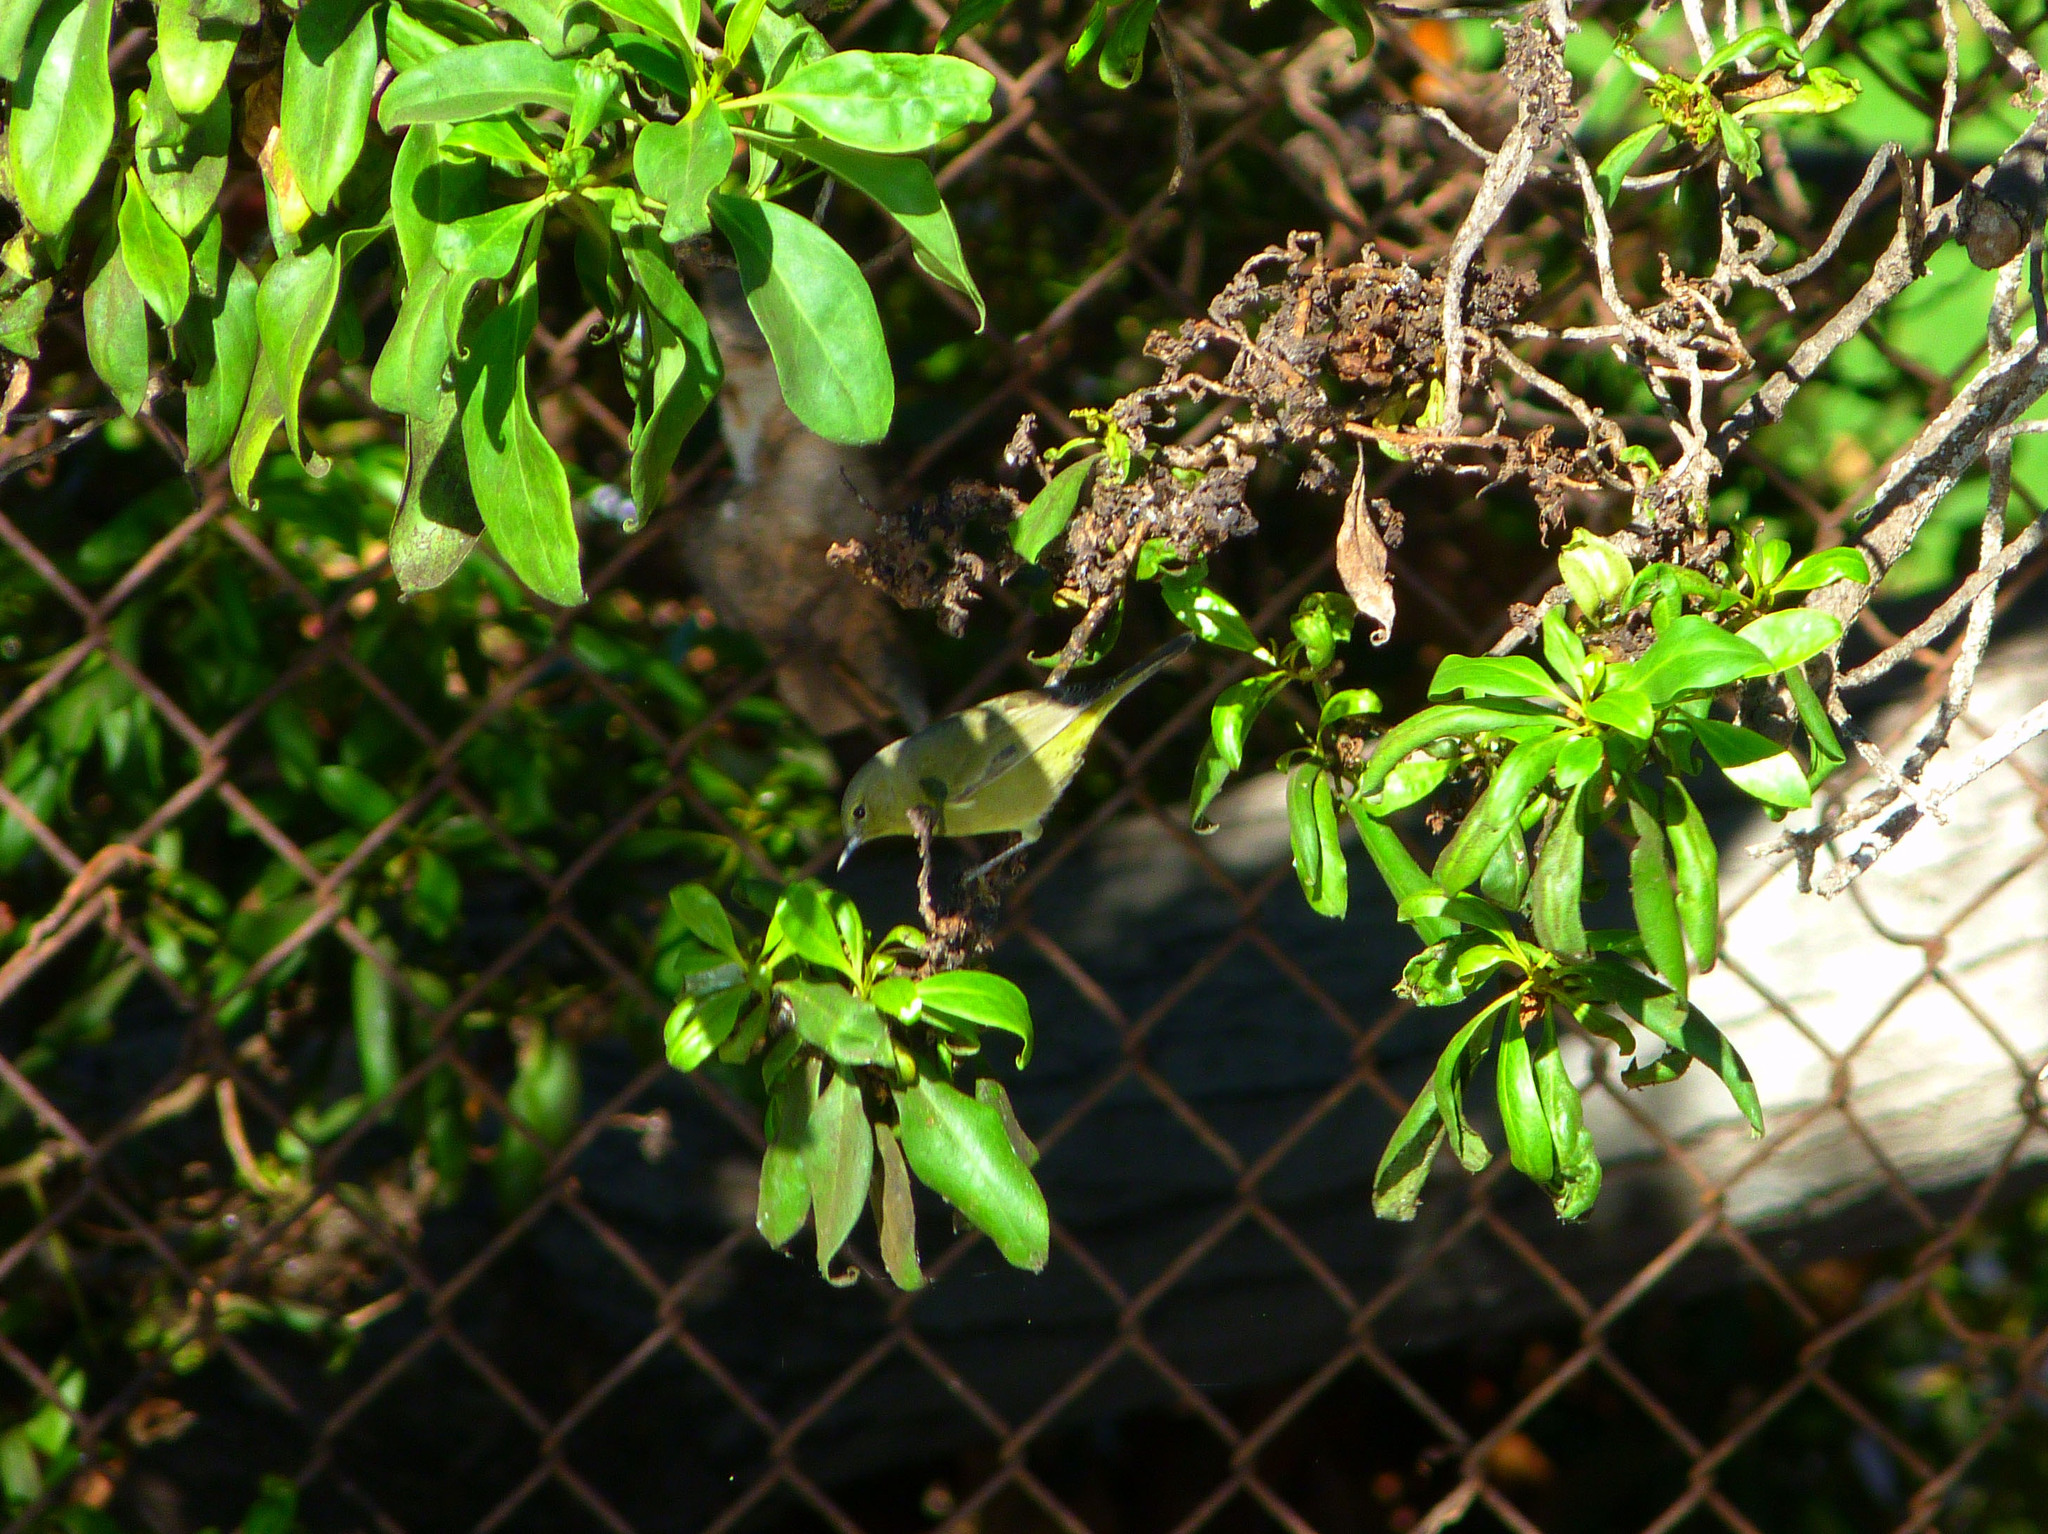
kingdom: Animalia
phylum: Chordata
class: Aves
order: Passeriformes
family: Parulidae
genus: Leiothlypis
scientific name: Leiothlypis celata
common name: Orange-crowned warbler
